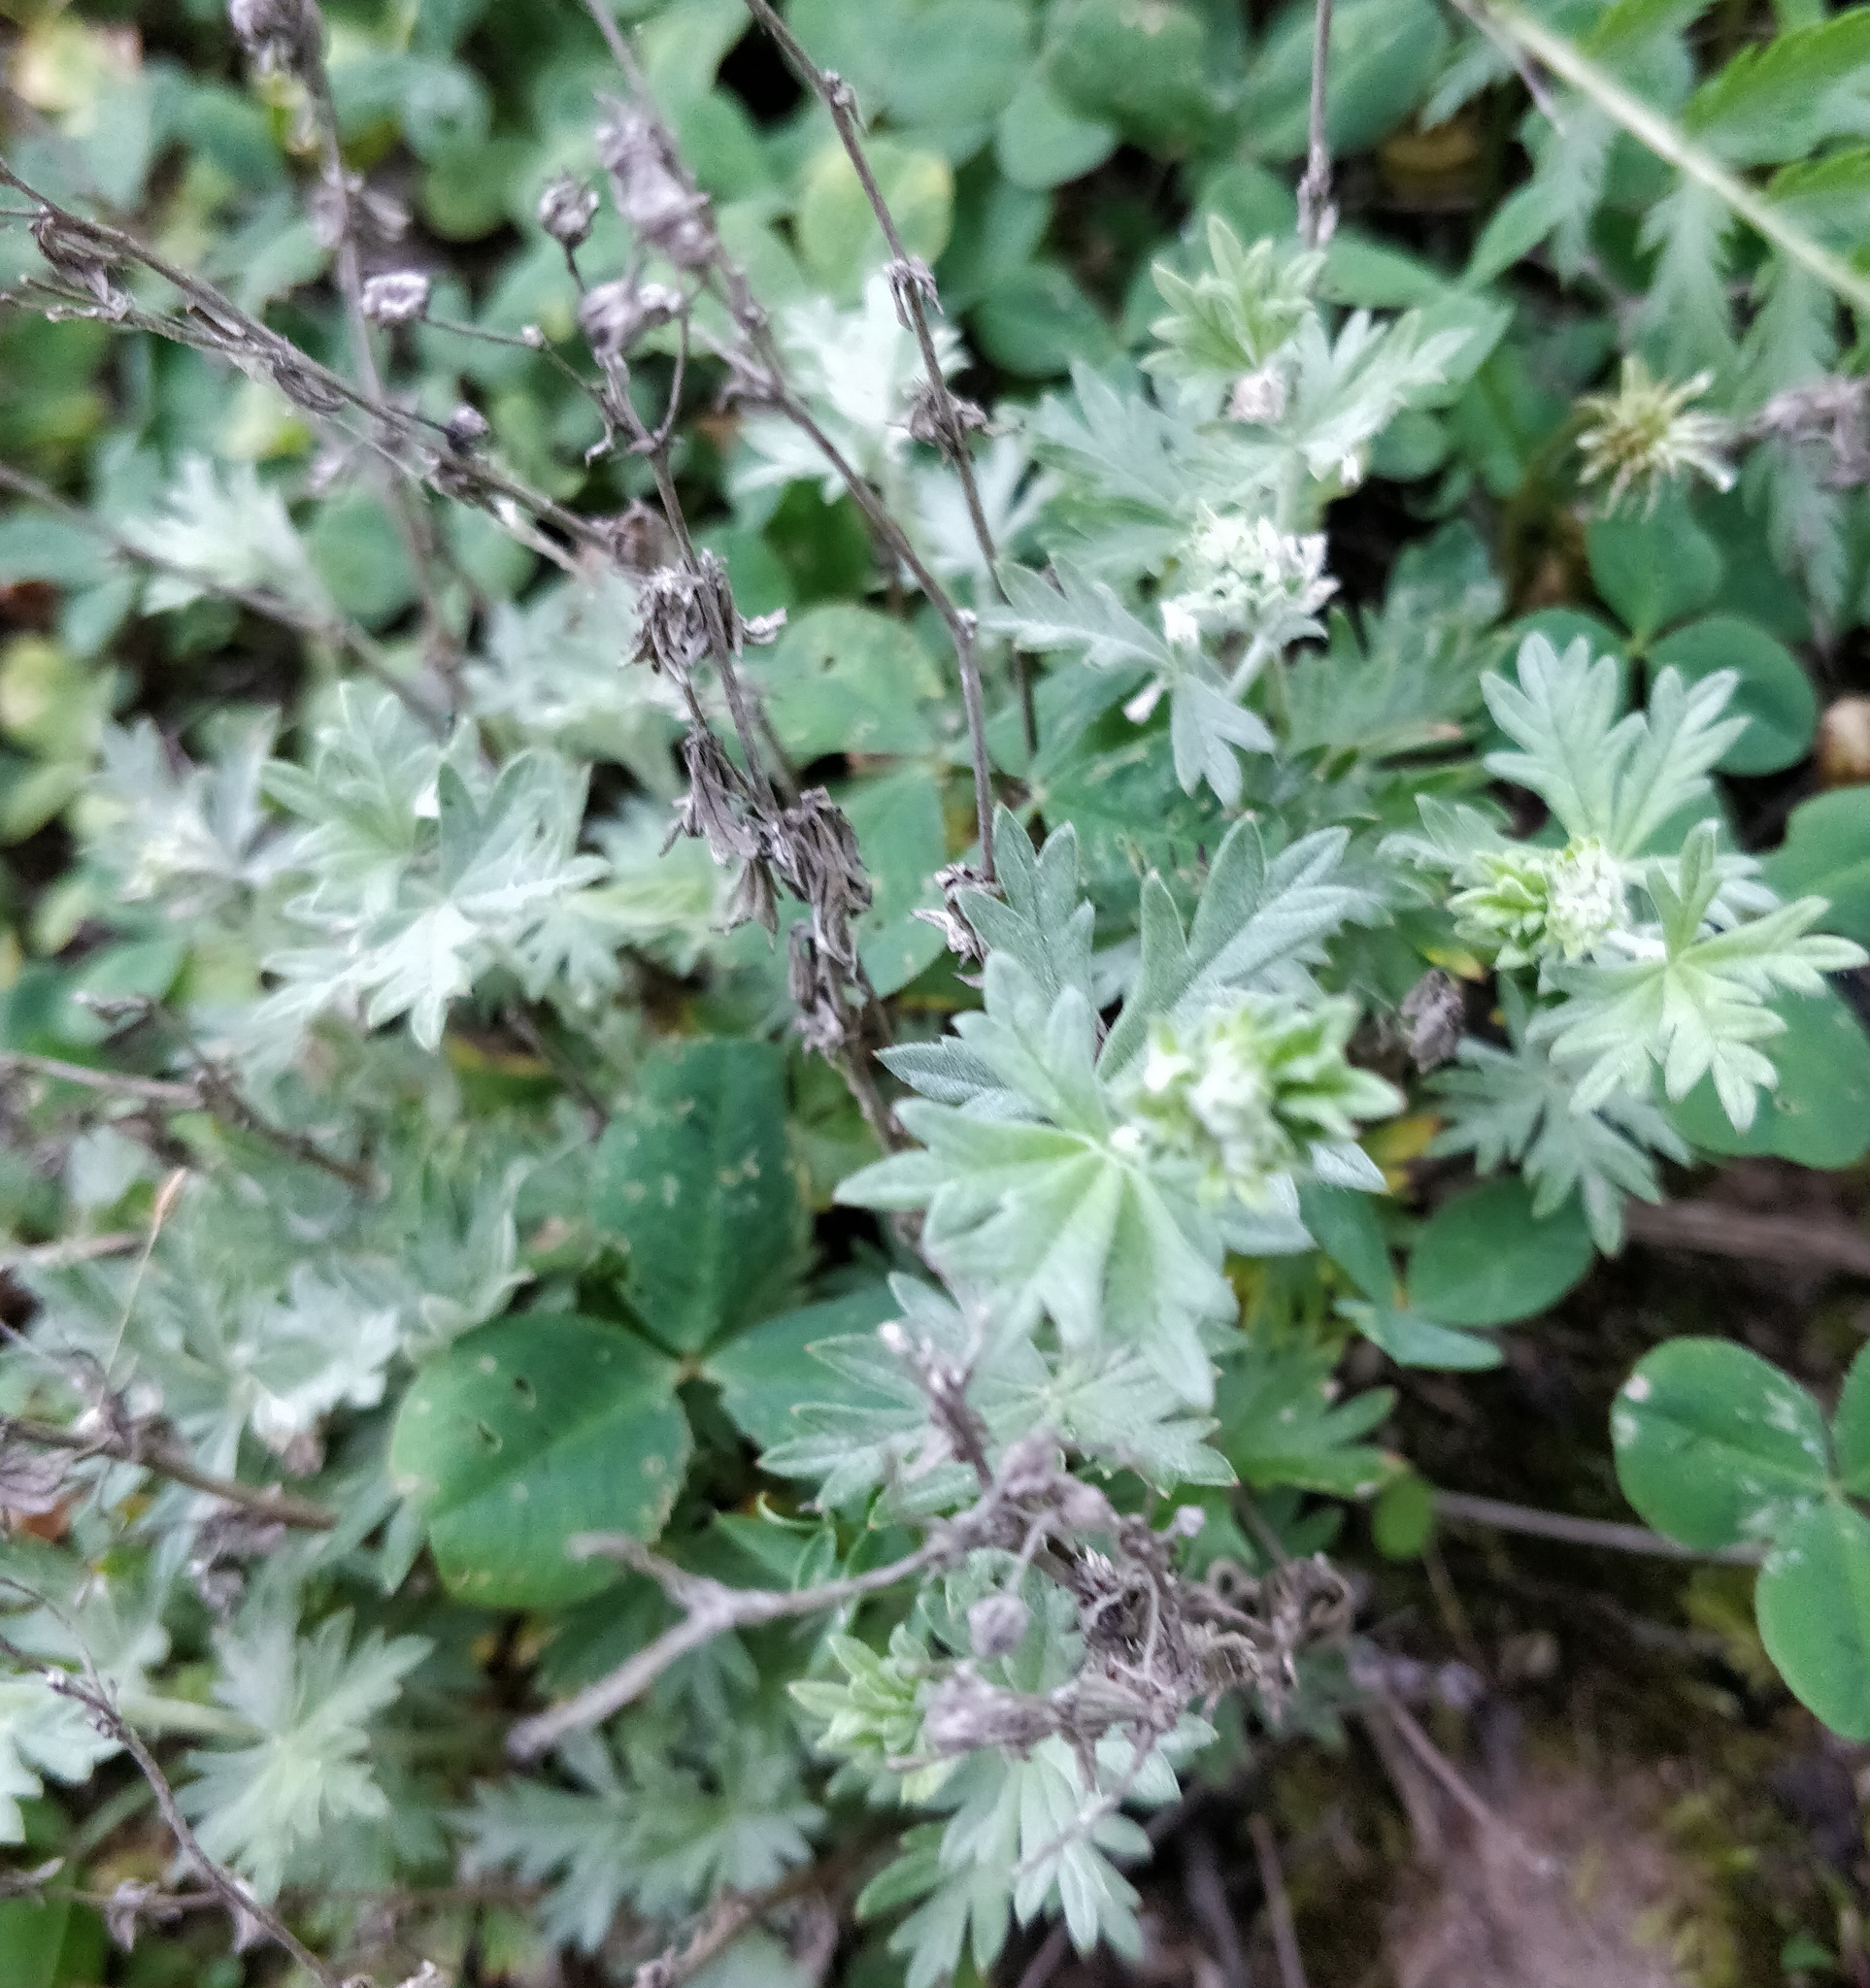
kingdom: Plantae
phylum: Tracheophyta
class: Magnoliopsida
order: Rosales
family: Rosaceae
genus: Potentilla
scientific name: Potentilla argentea
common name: Hoary cinquefoil
